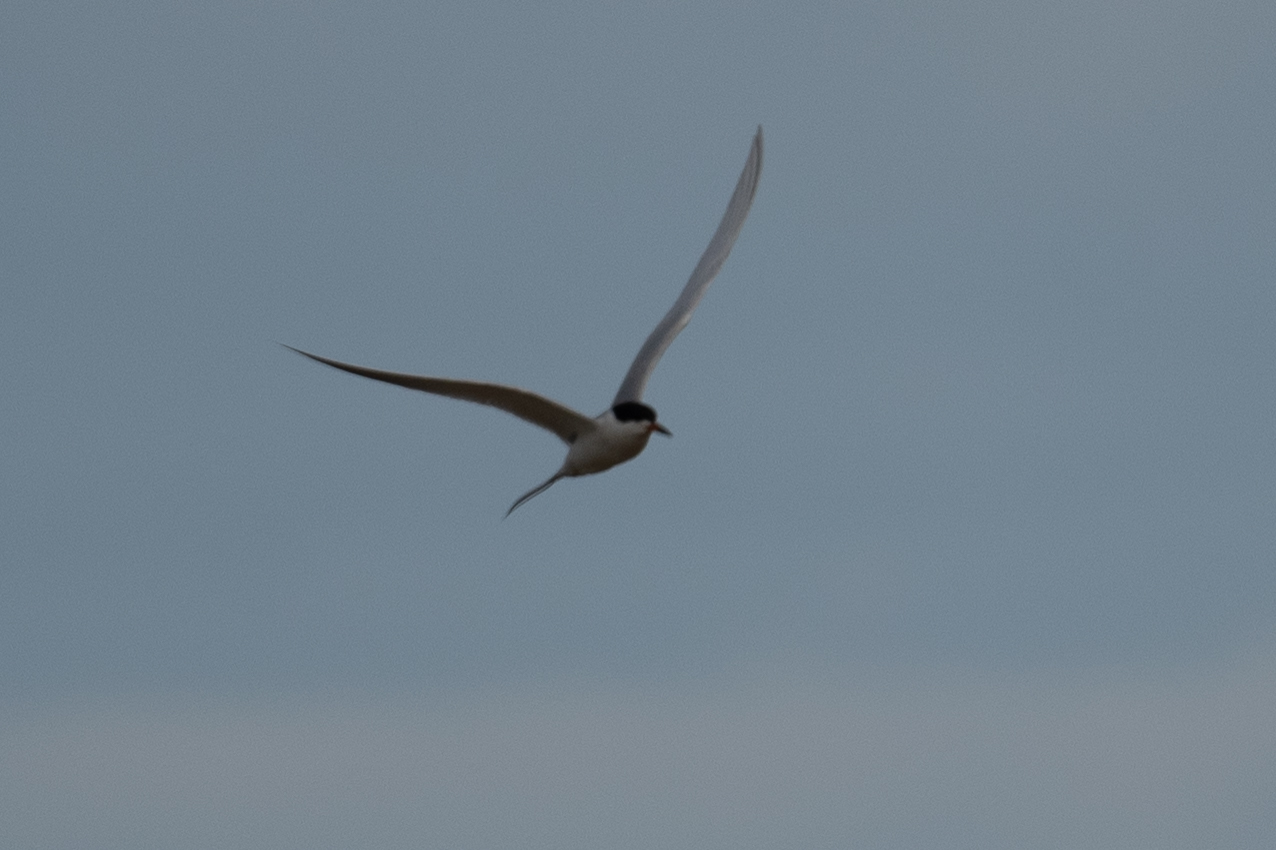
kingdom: Animalia
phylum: Chordata
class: Aves
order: Charadriiformes
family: Laridae
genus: Sterna
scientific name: Sterna forsteri
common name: Forster's tern
